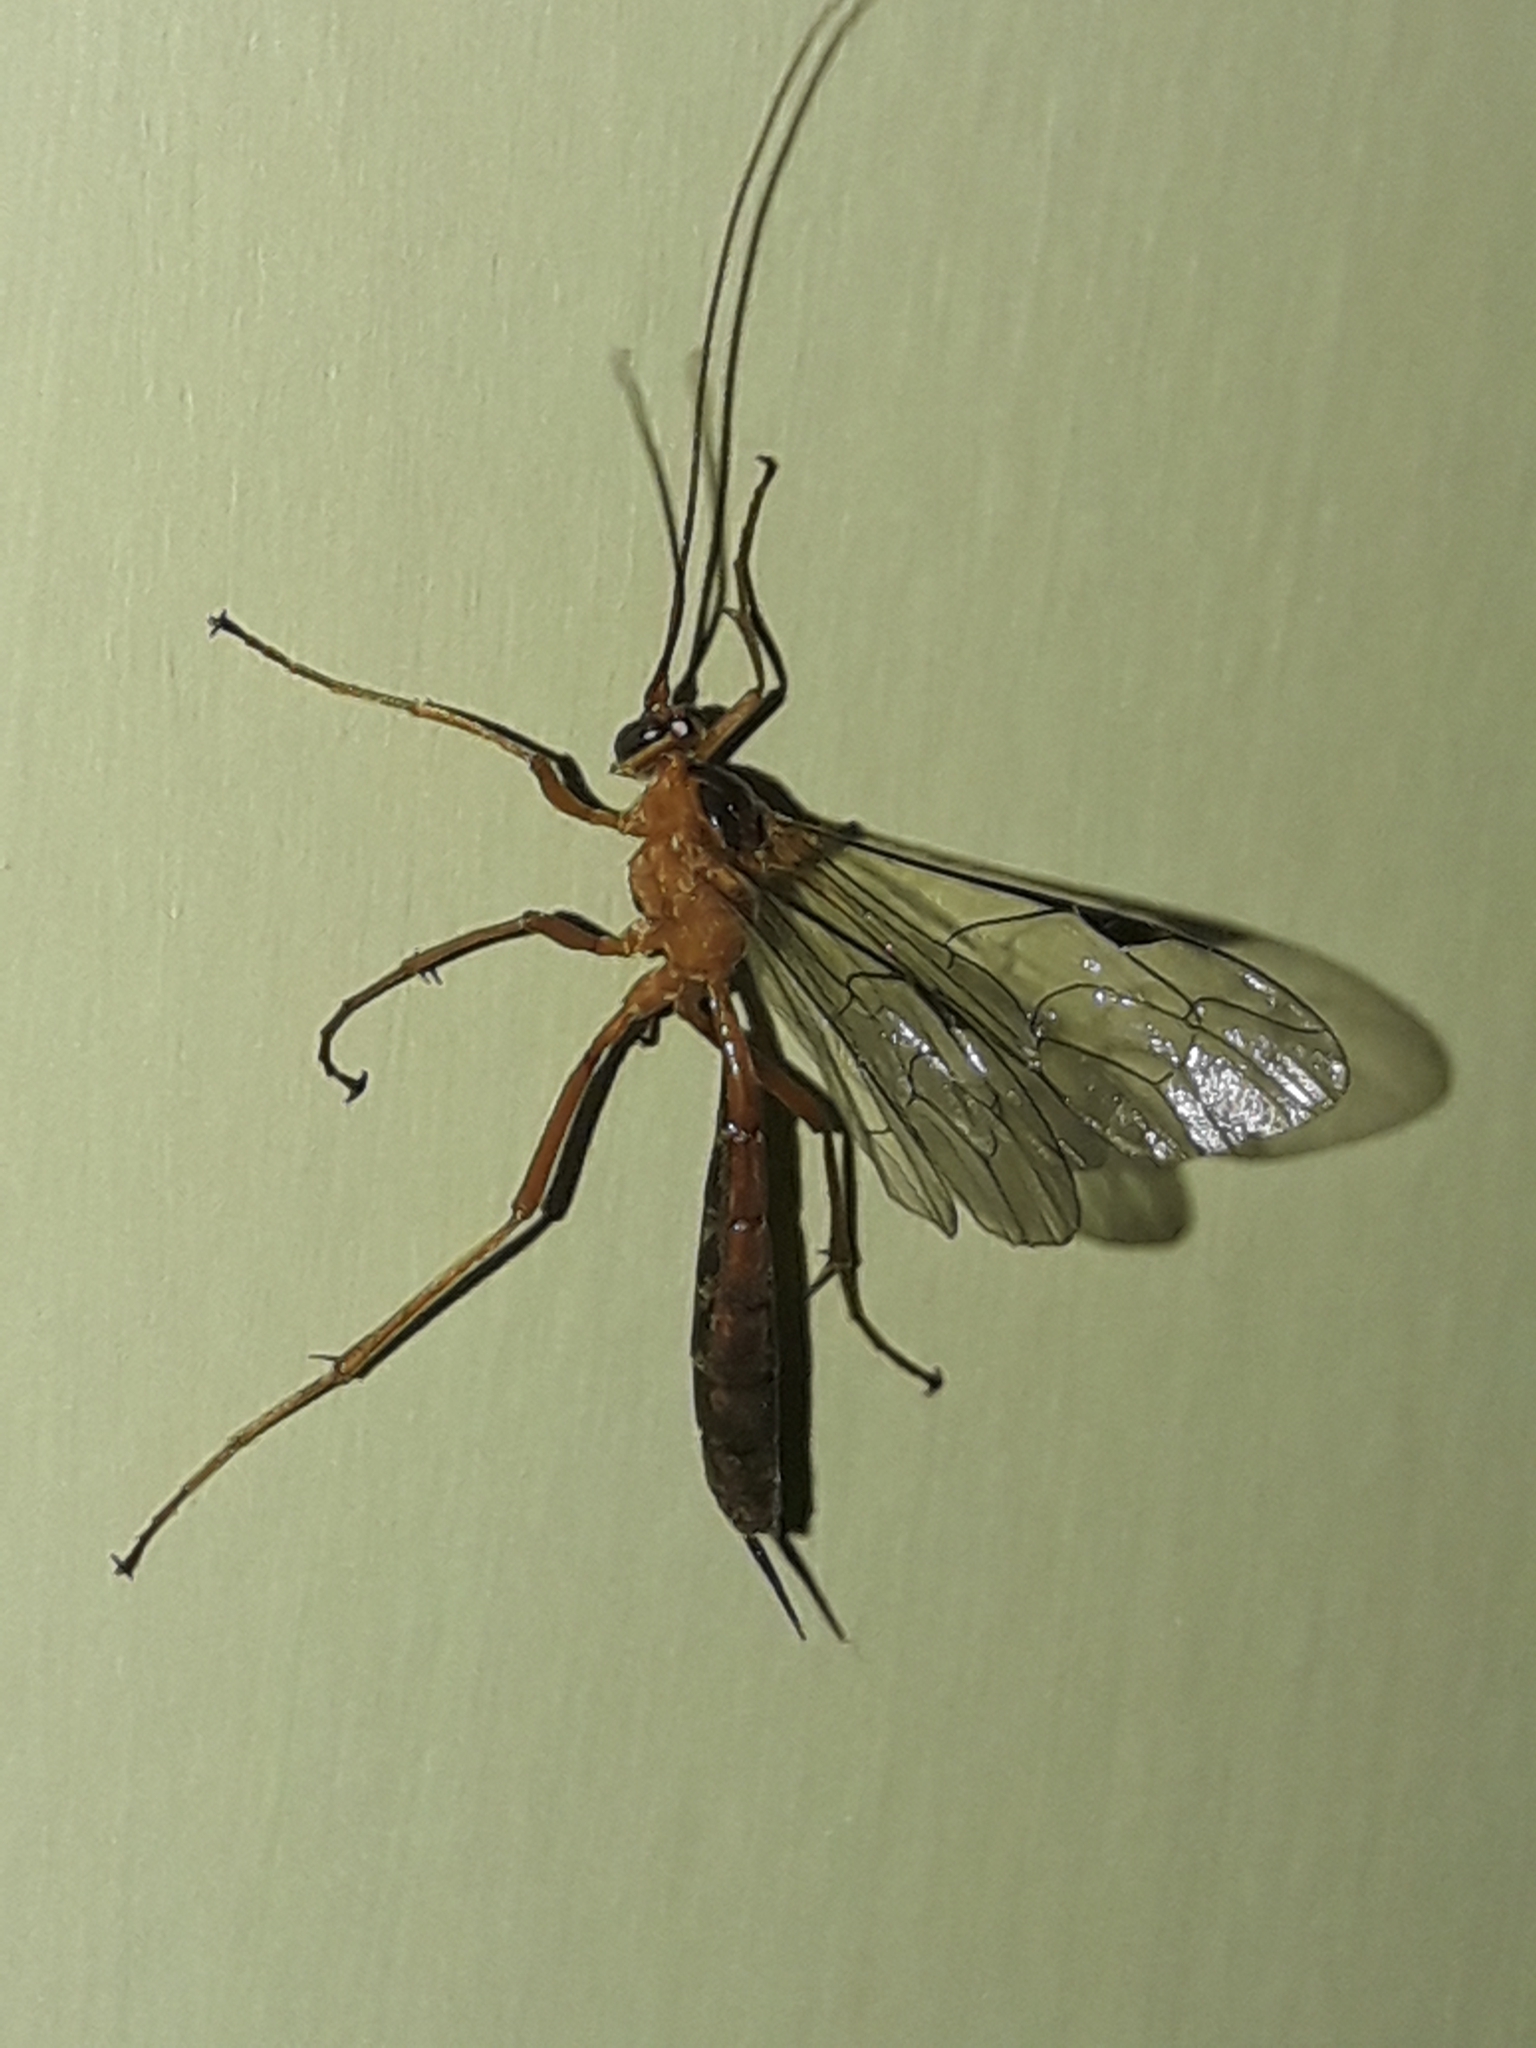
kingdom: Animalia
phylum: Arthropoda
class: Insecta
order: Hymenoptera
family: Ichneumonidae
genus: Netelia
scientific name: Netelia ephippiata
